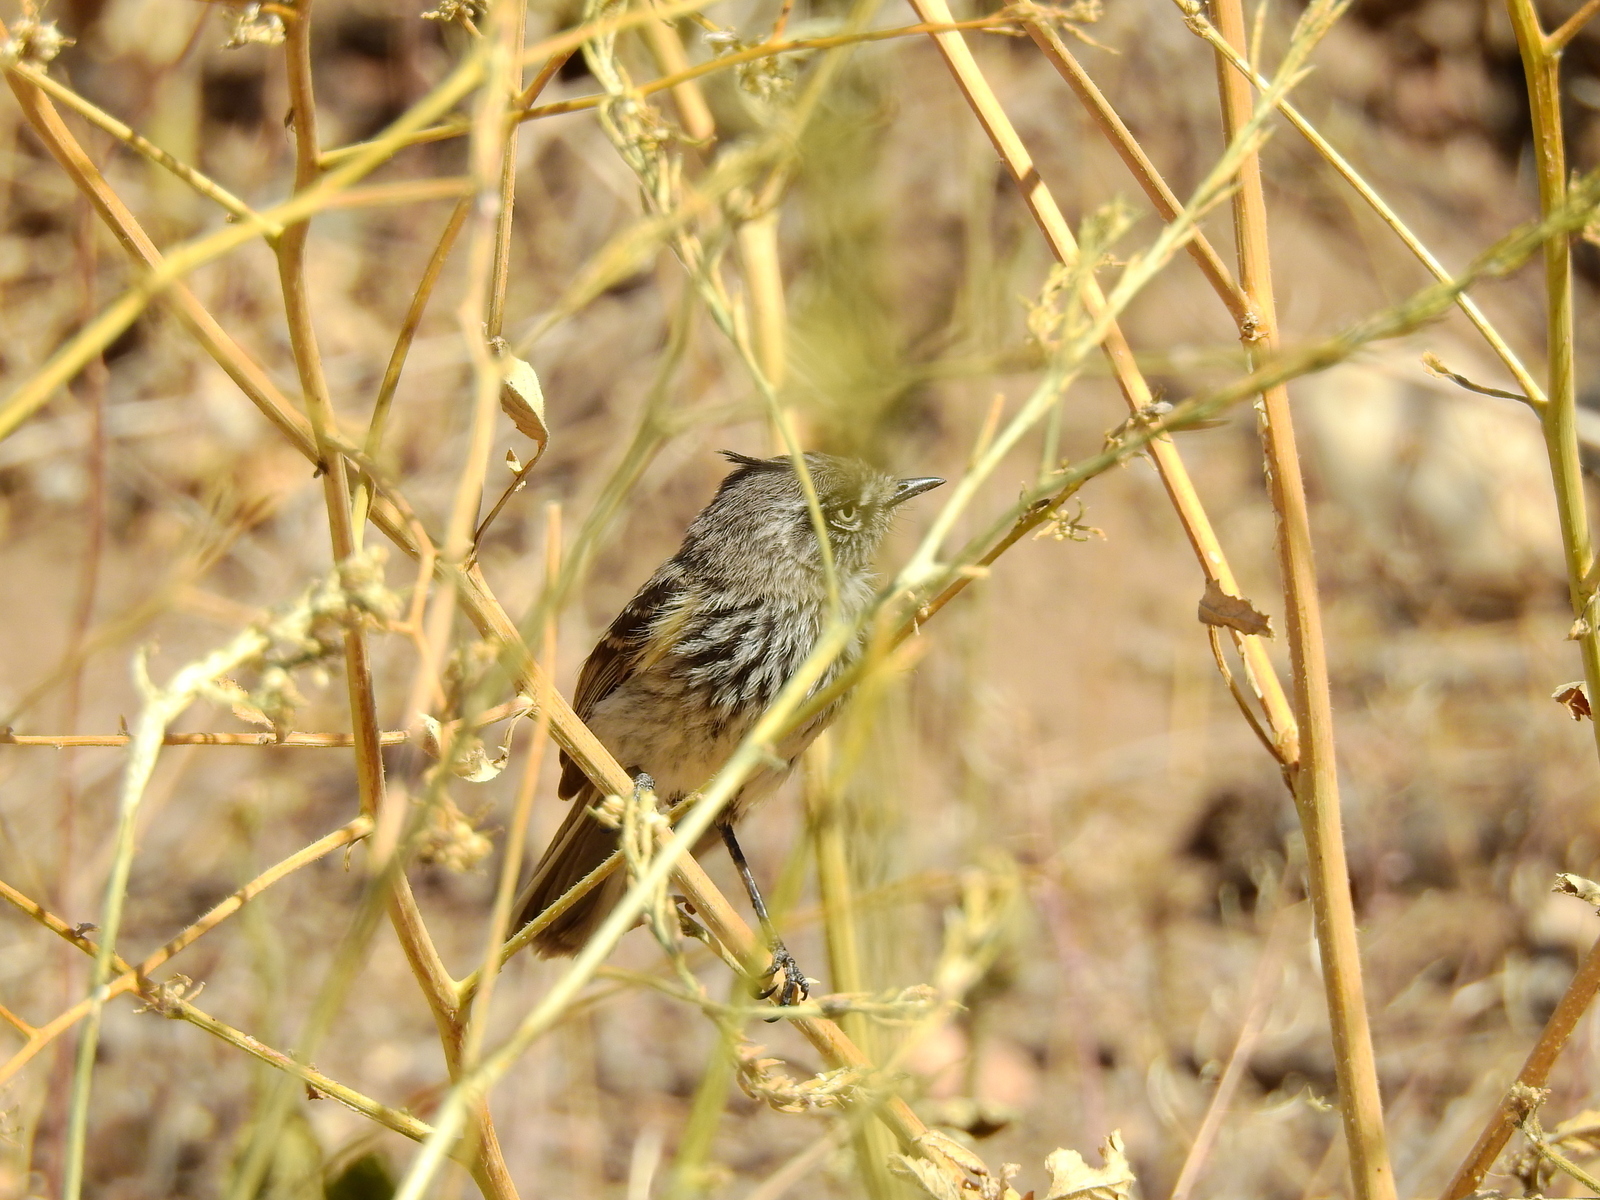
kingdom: Animalia
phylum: Chordata
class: Aves
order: Passeriformes
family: Tyrannidae
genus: Anairetes
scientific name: Anairetes parulus
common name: Tufted tit-tyrant
